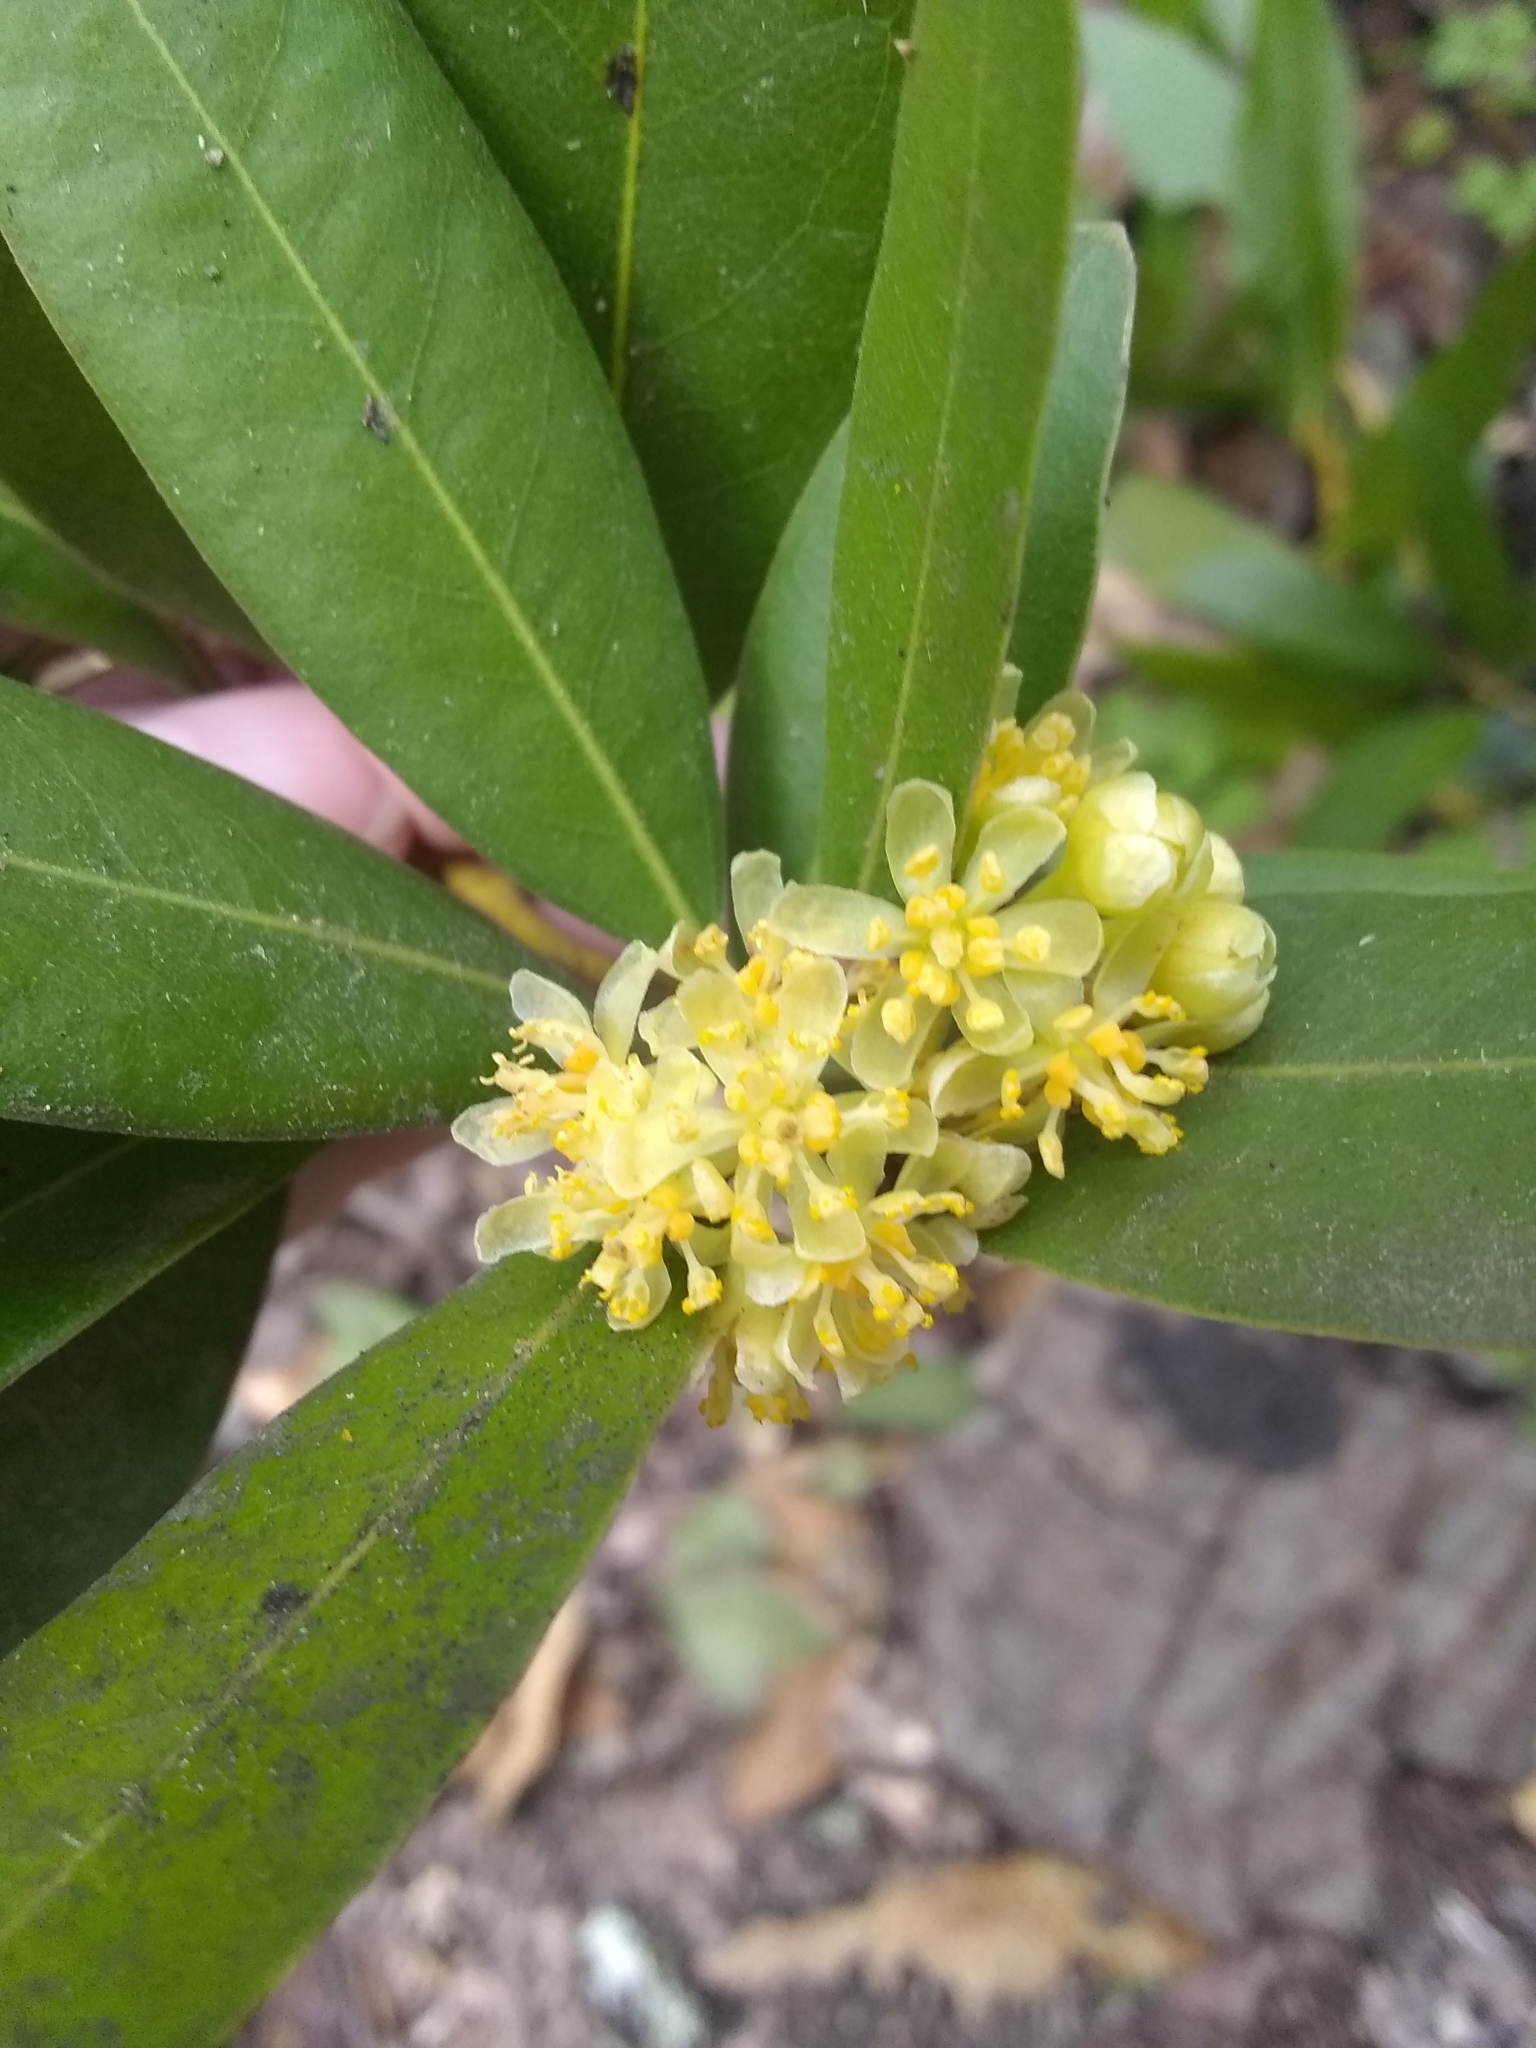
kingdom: Plantae
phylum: Tracheophyta
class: Magnoliopsida
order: Laurales
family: Lauraceae
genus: Umbellularia
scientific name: Umbellularia californica
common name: California bay
